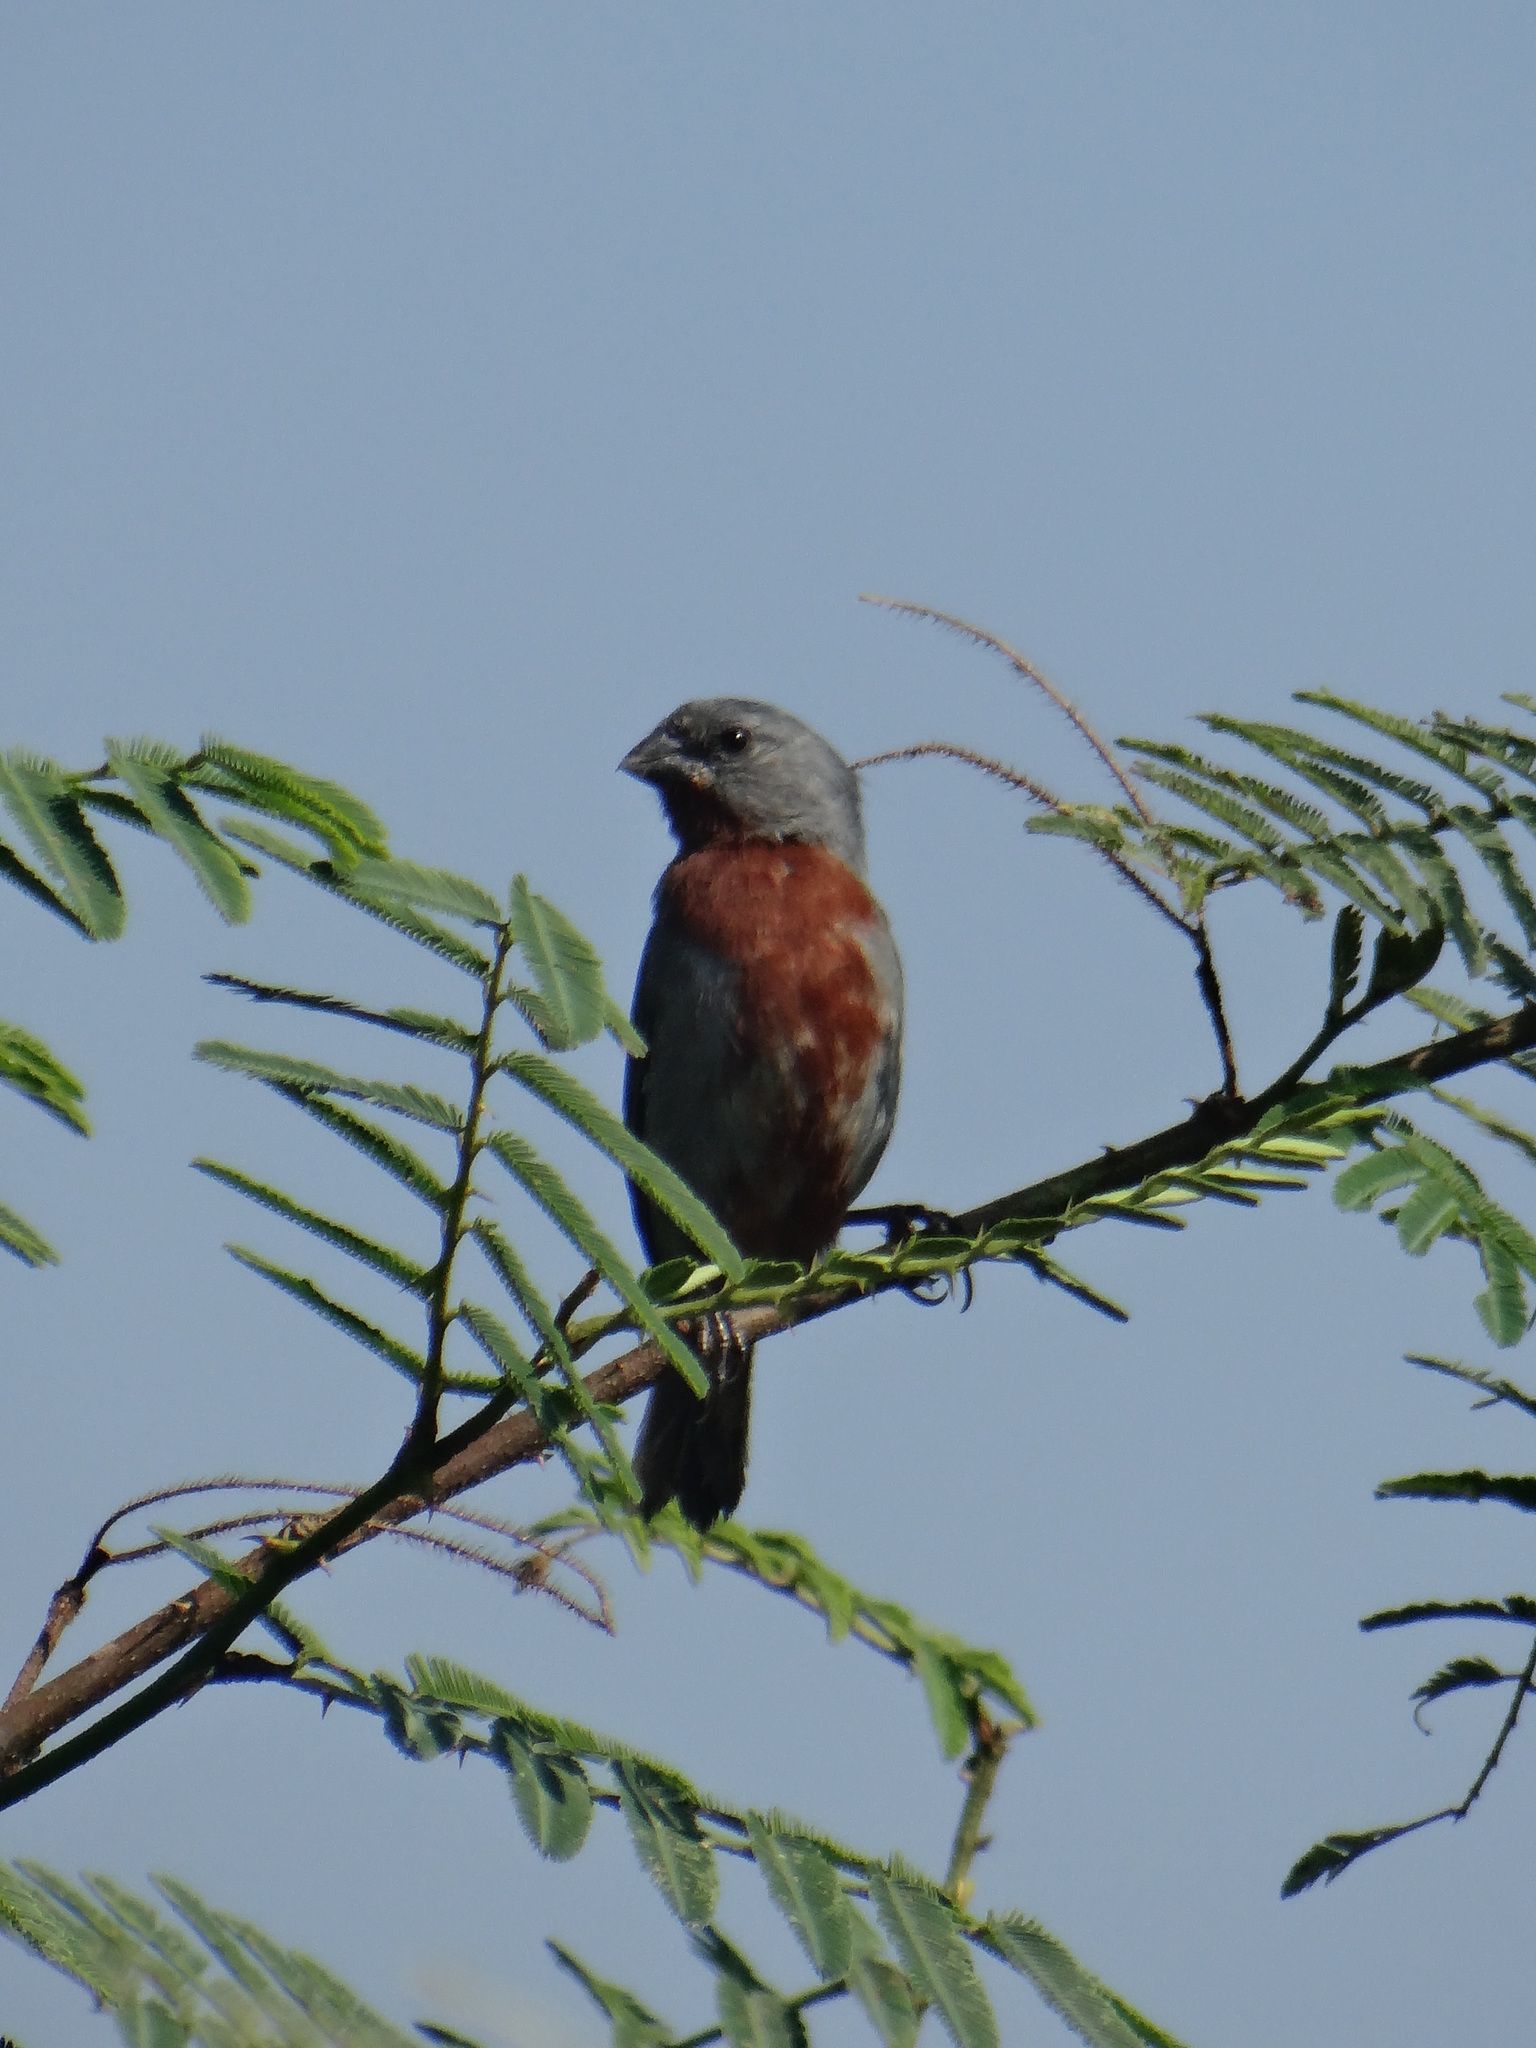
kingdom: Animalia
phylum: Chordata
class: Aves
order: Passeriformes
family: Thraupidae
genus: Sporophila
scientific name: Sporophila castaneiventris
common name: Chestnut-bellied seedeater
